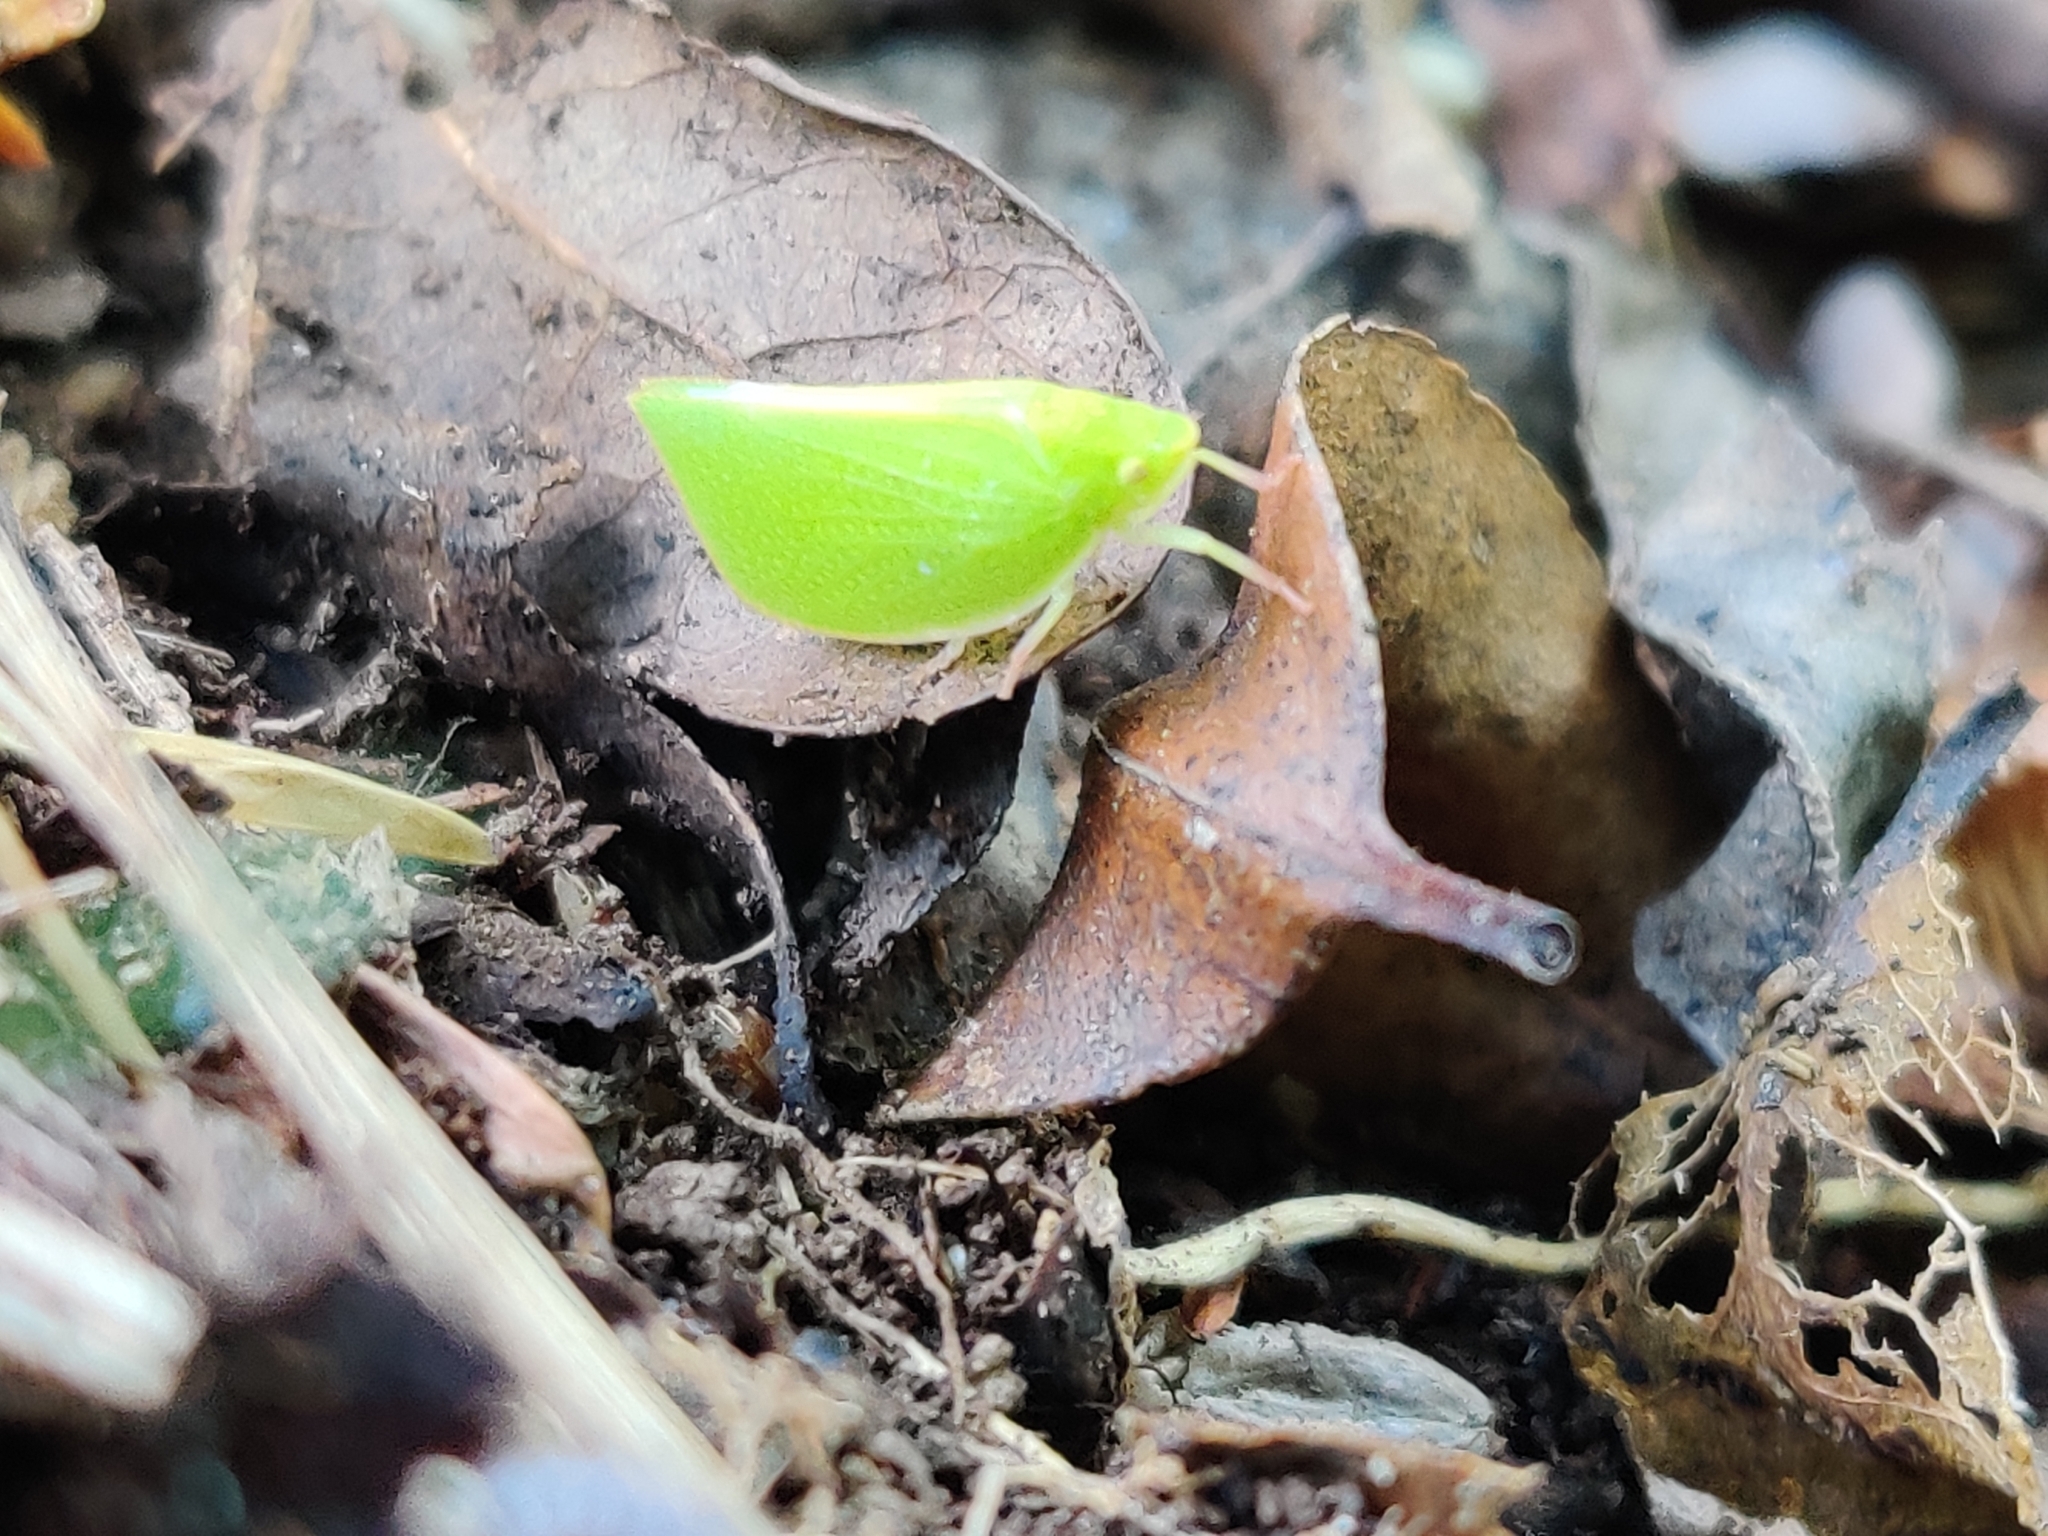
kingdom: Animalia
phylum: Arthropoda
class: Insecta
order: Hemiptera
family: Flatidae
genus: Siphanta
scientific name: Siphanta acuta
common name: Torpedo bug
